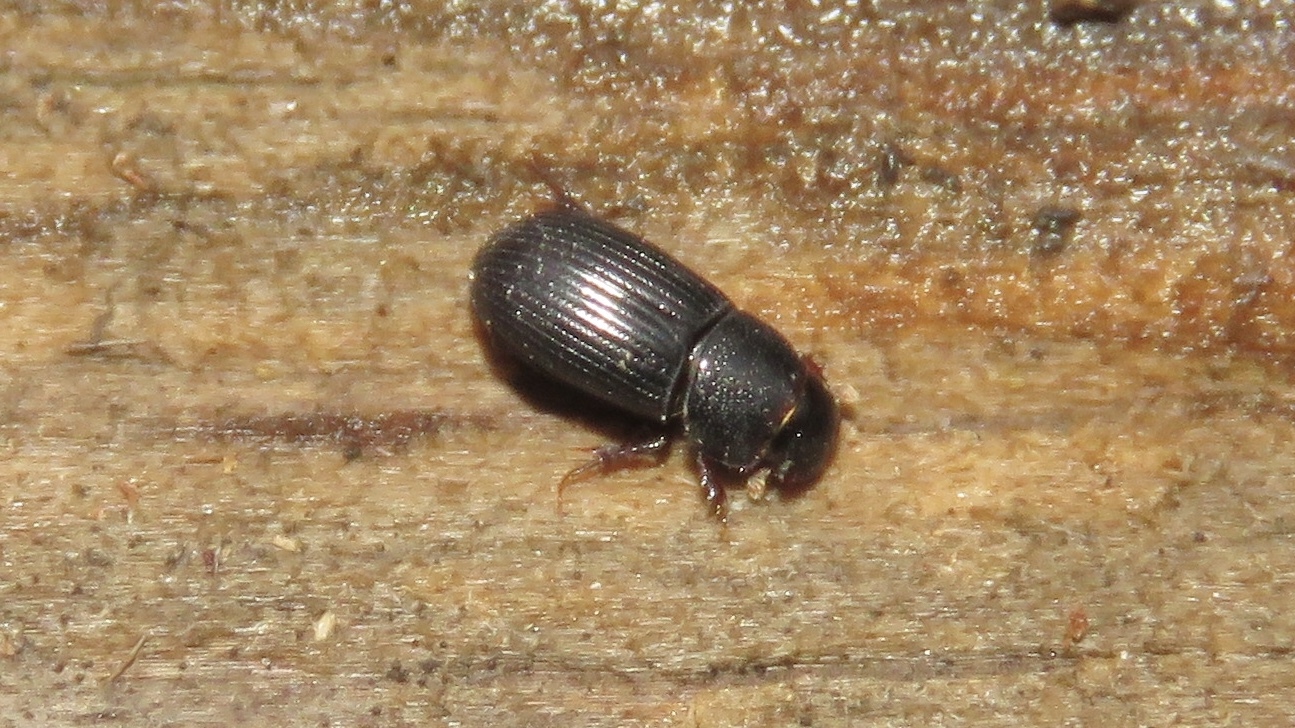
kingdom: Animalia
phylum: Arthropoda
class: Insecta
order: Coleoptera
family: Scarabaeidae
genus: Ataenius
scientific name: Ataenius strigatus
